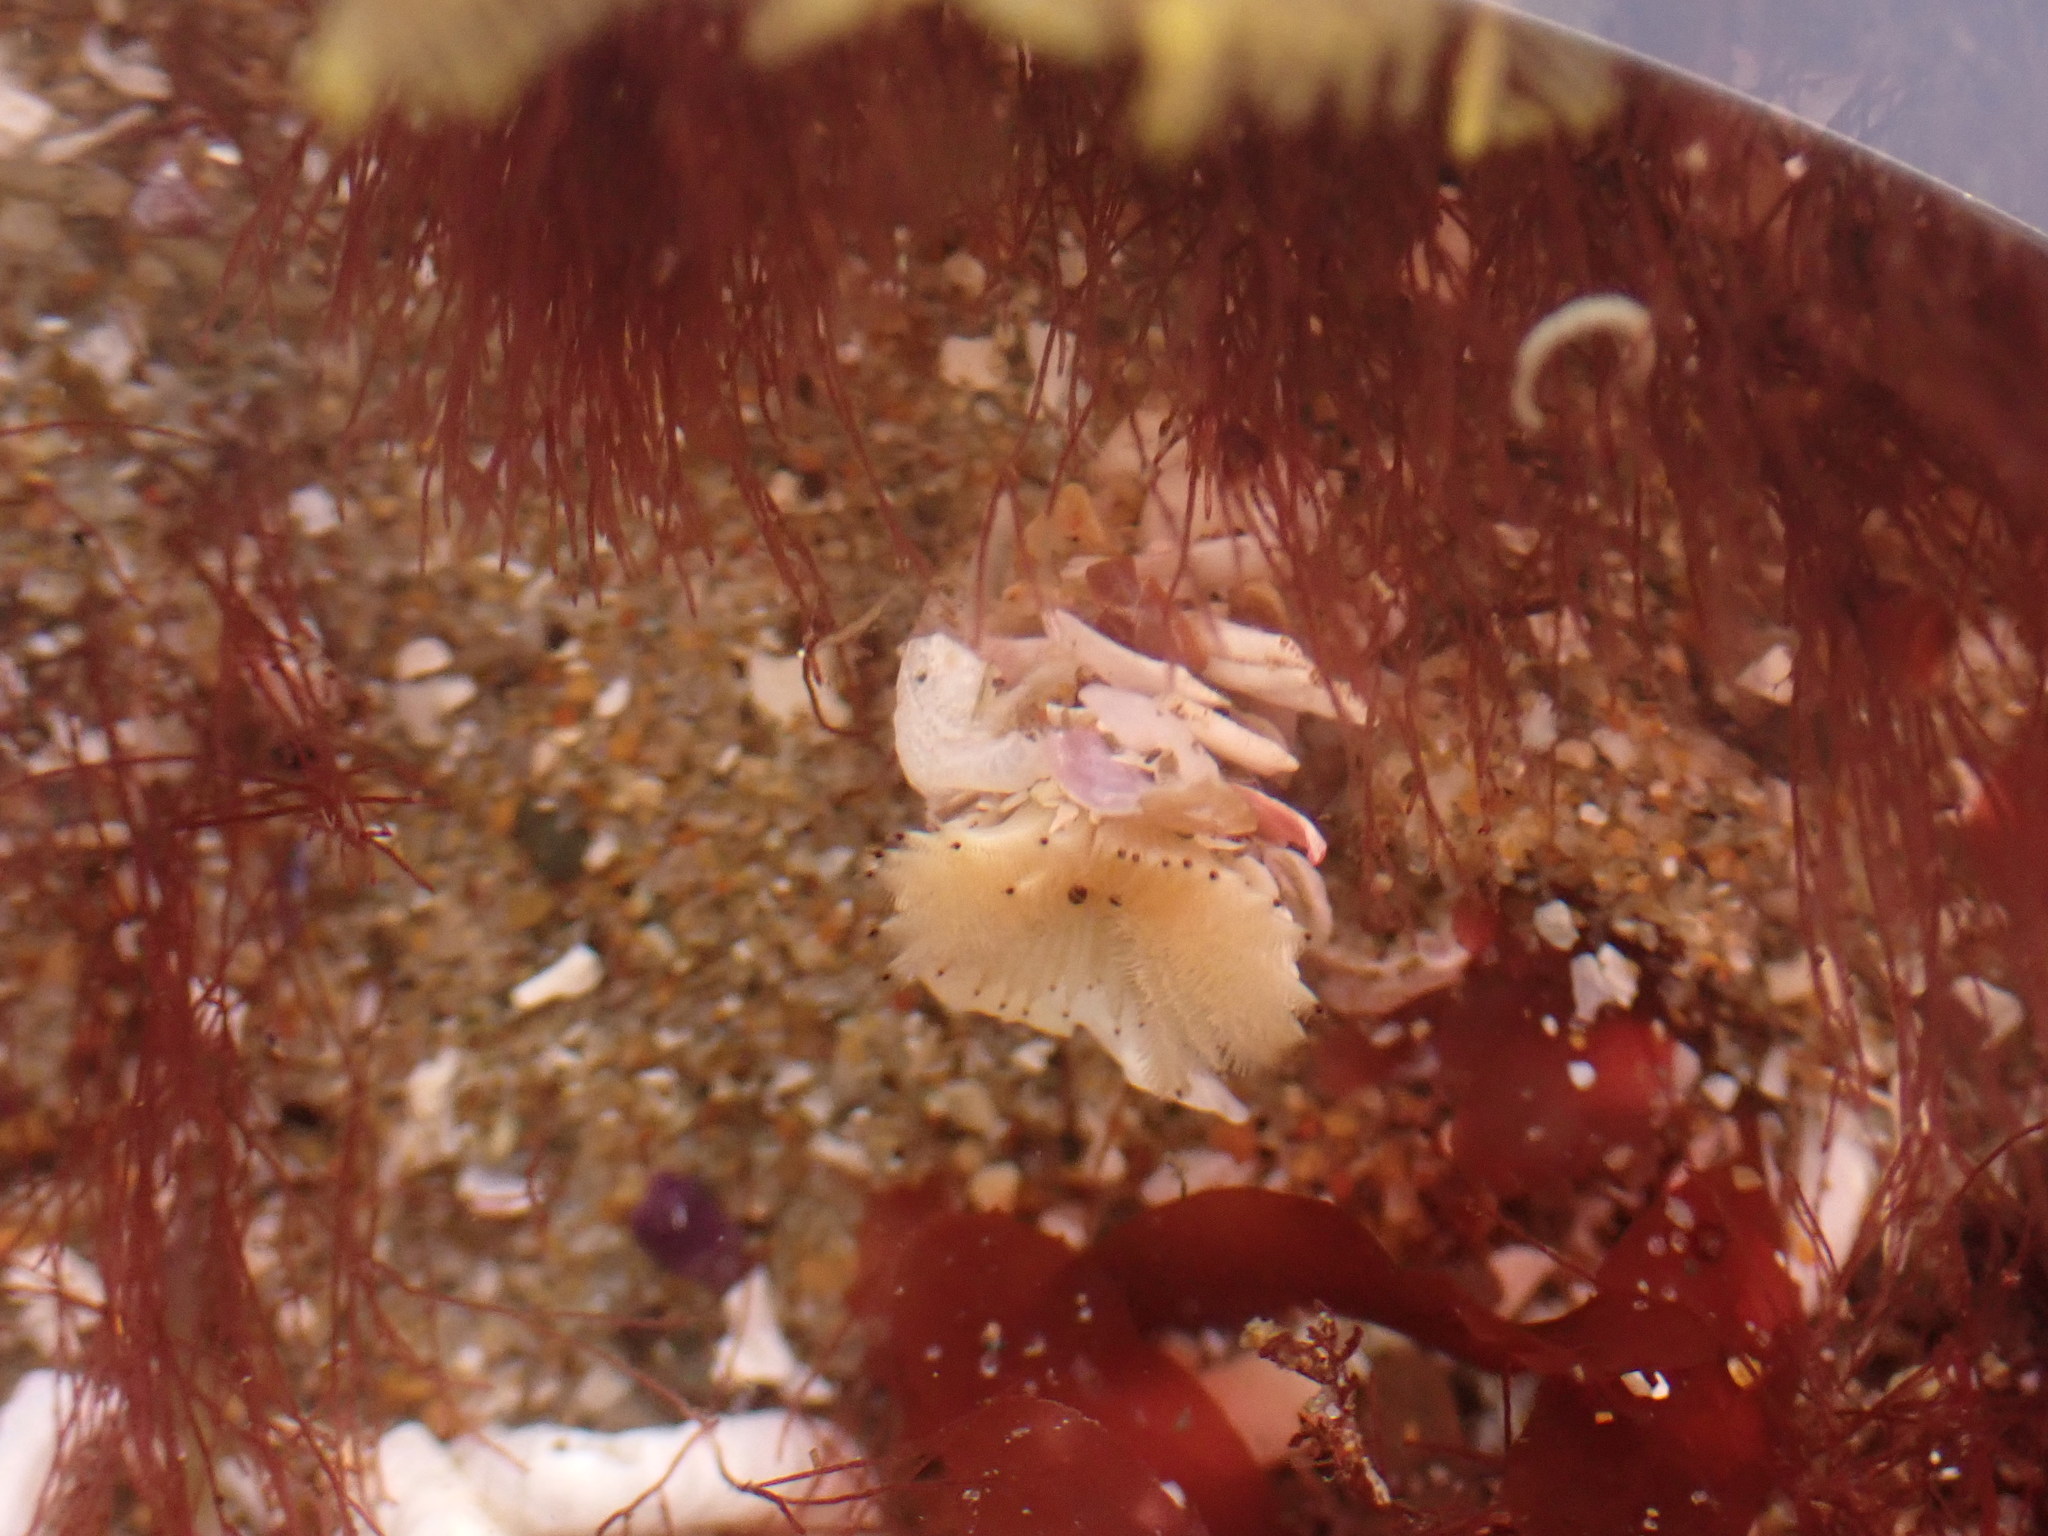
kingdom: Animalia
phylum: Annelida
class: Polychaeta
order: Sabellida
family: Sabellidae
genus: Acromegalomma
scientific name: Acromegalomma splendidum
